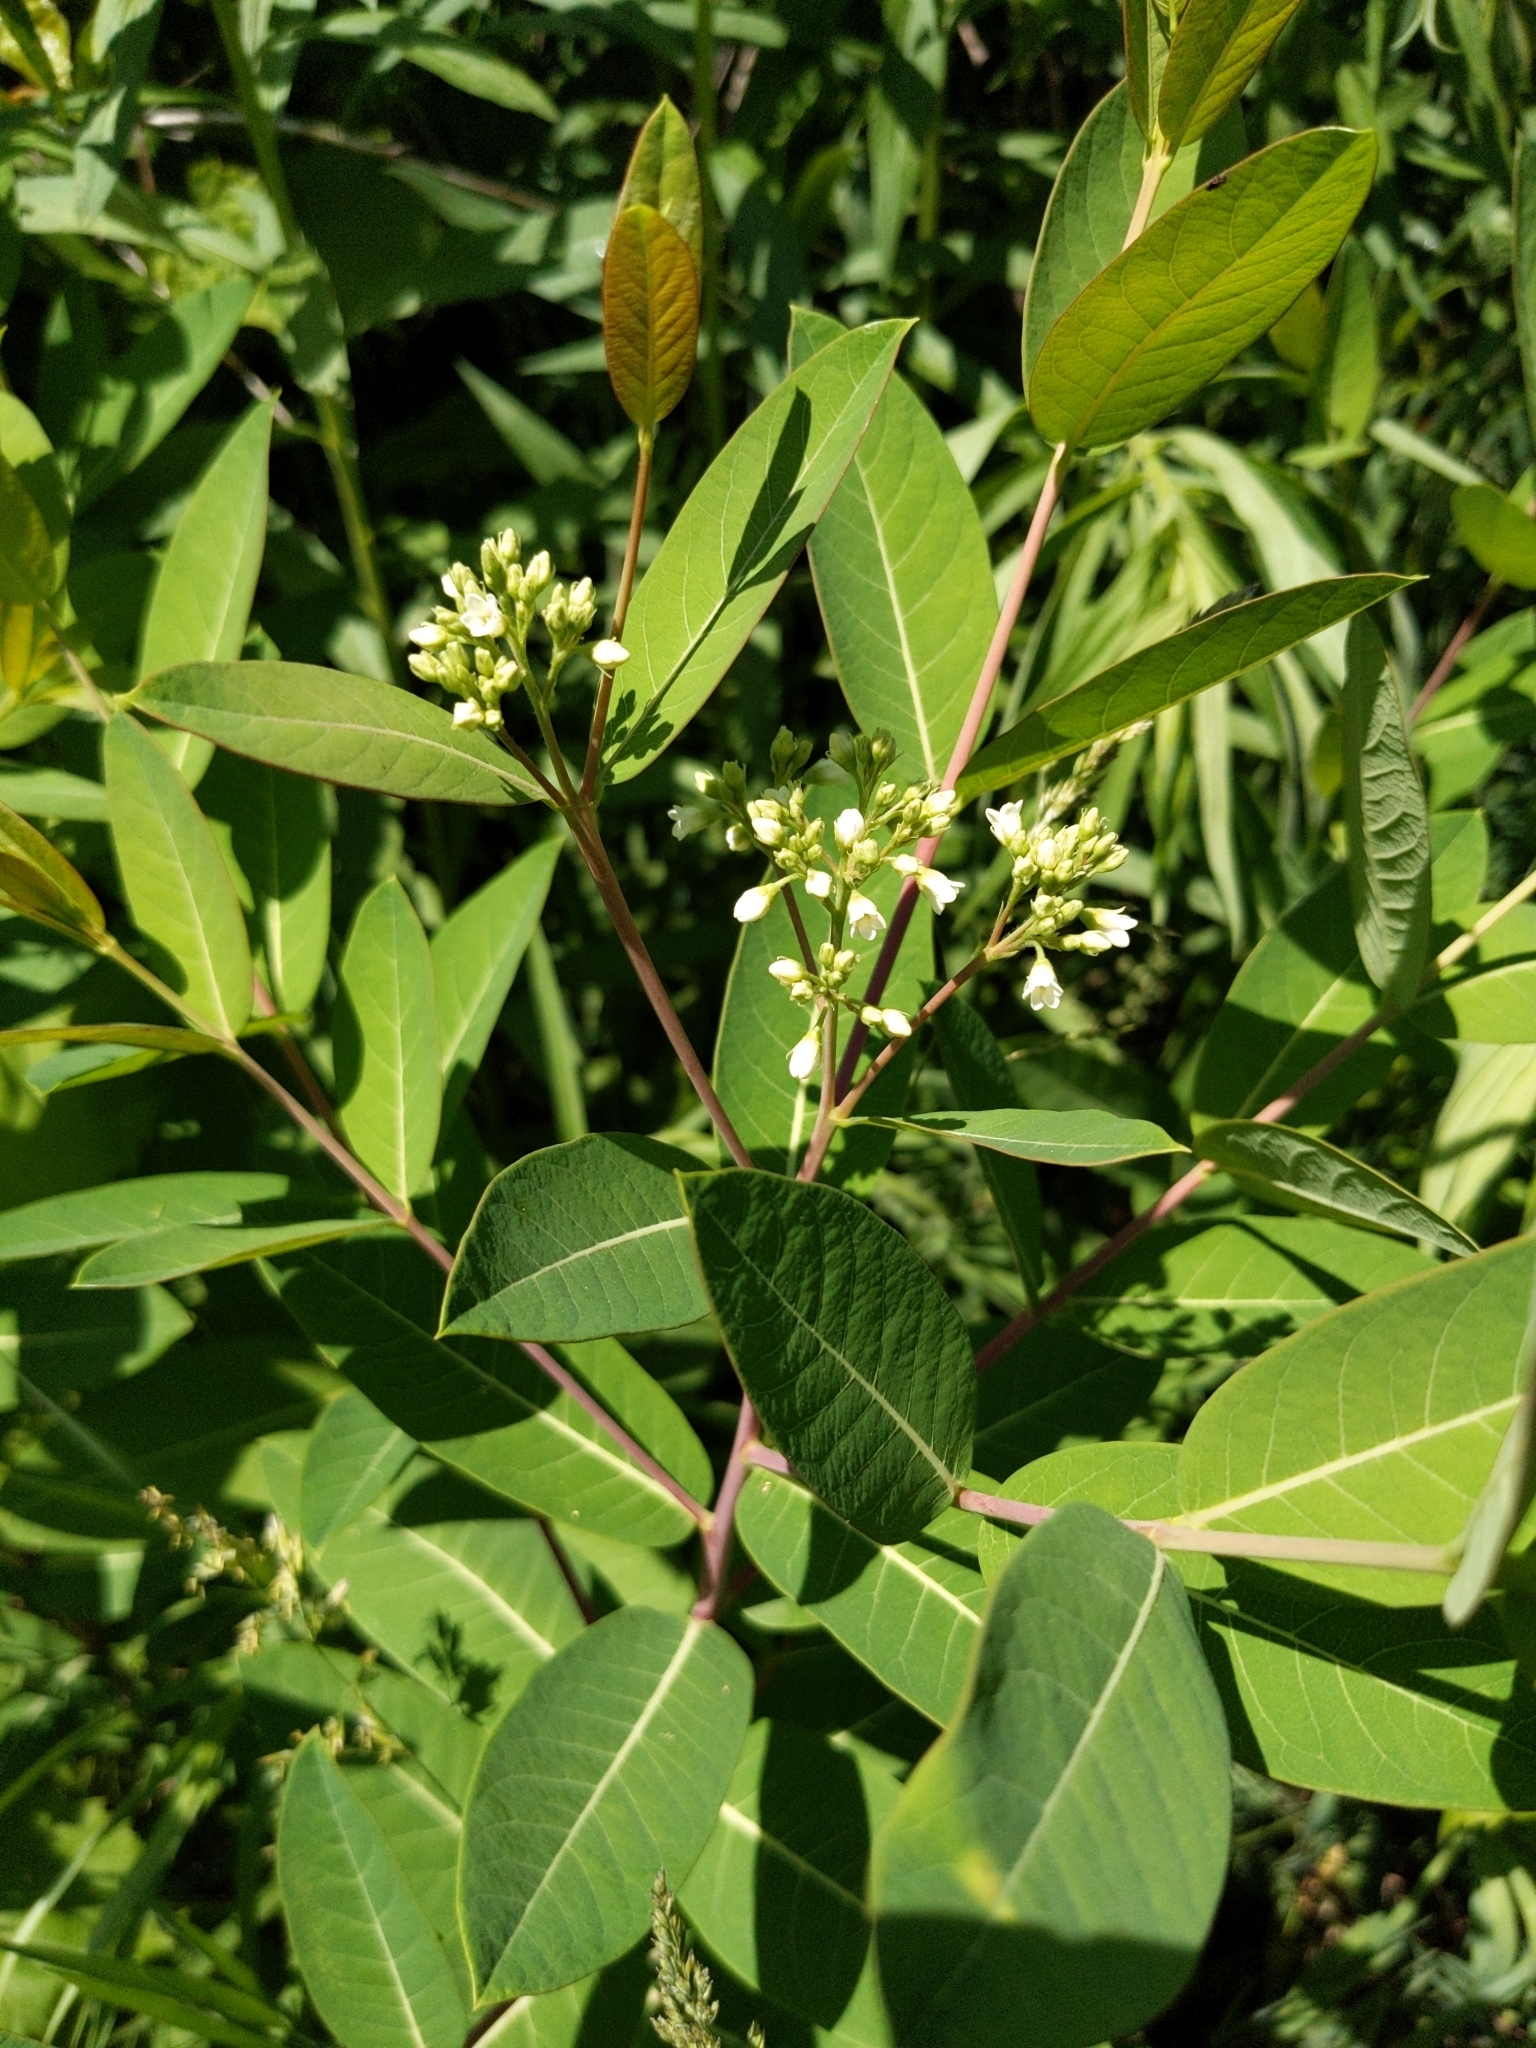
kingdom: Plantae
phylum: Tracheophyta
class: Magnoliopsida
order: Gentianales
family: Apocynaceae
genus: Apocynum
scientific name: Apocynum cannabinum
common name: Hemp dogbane
